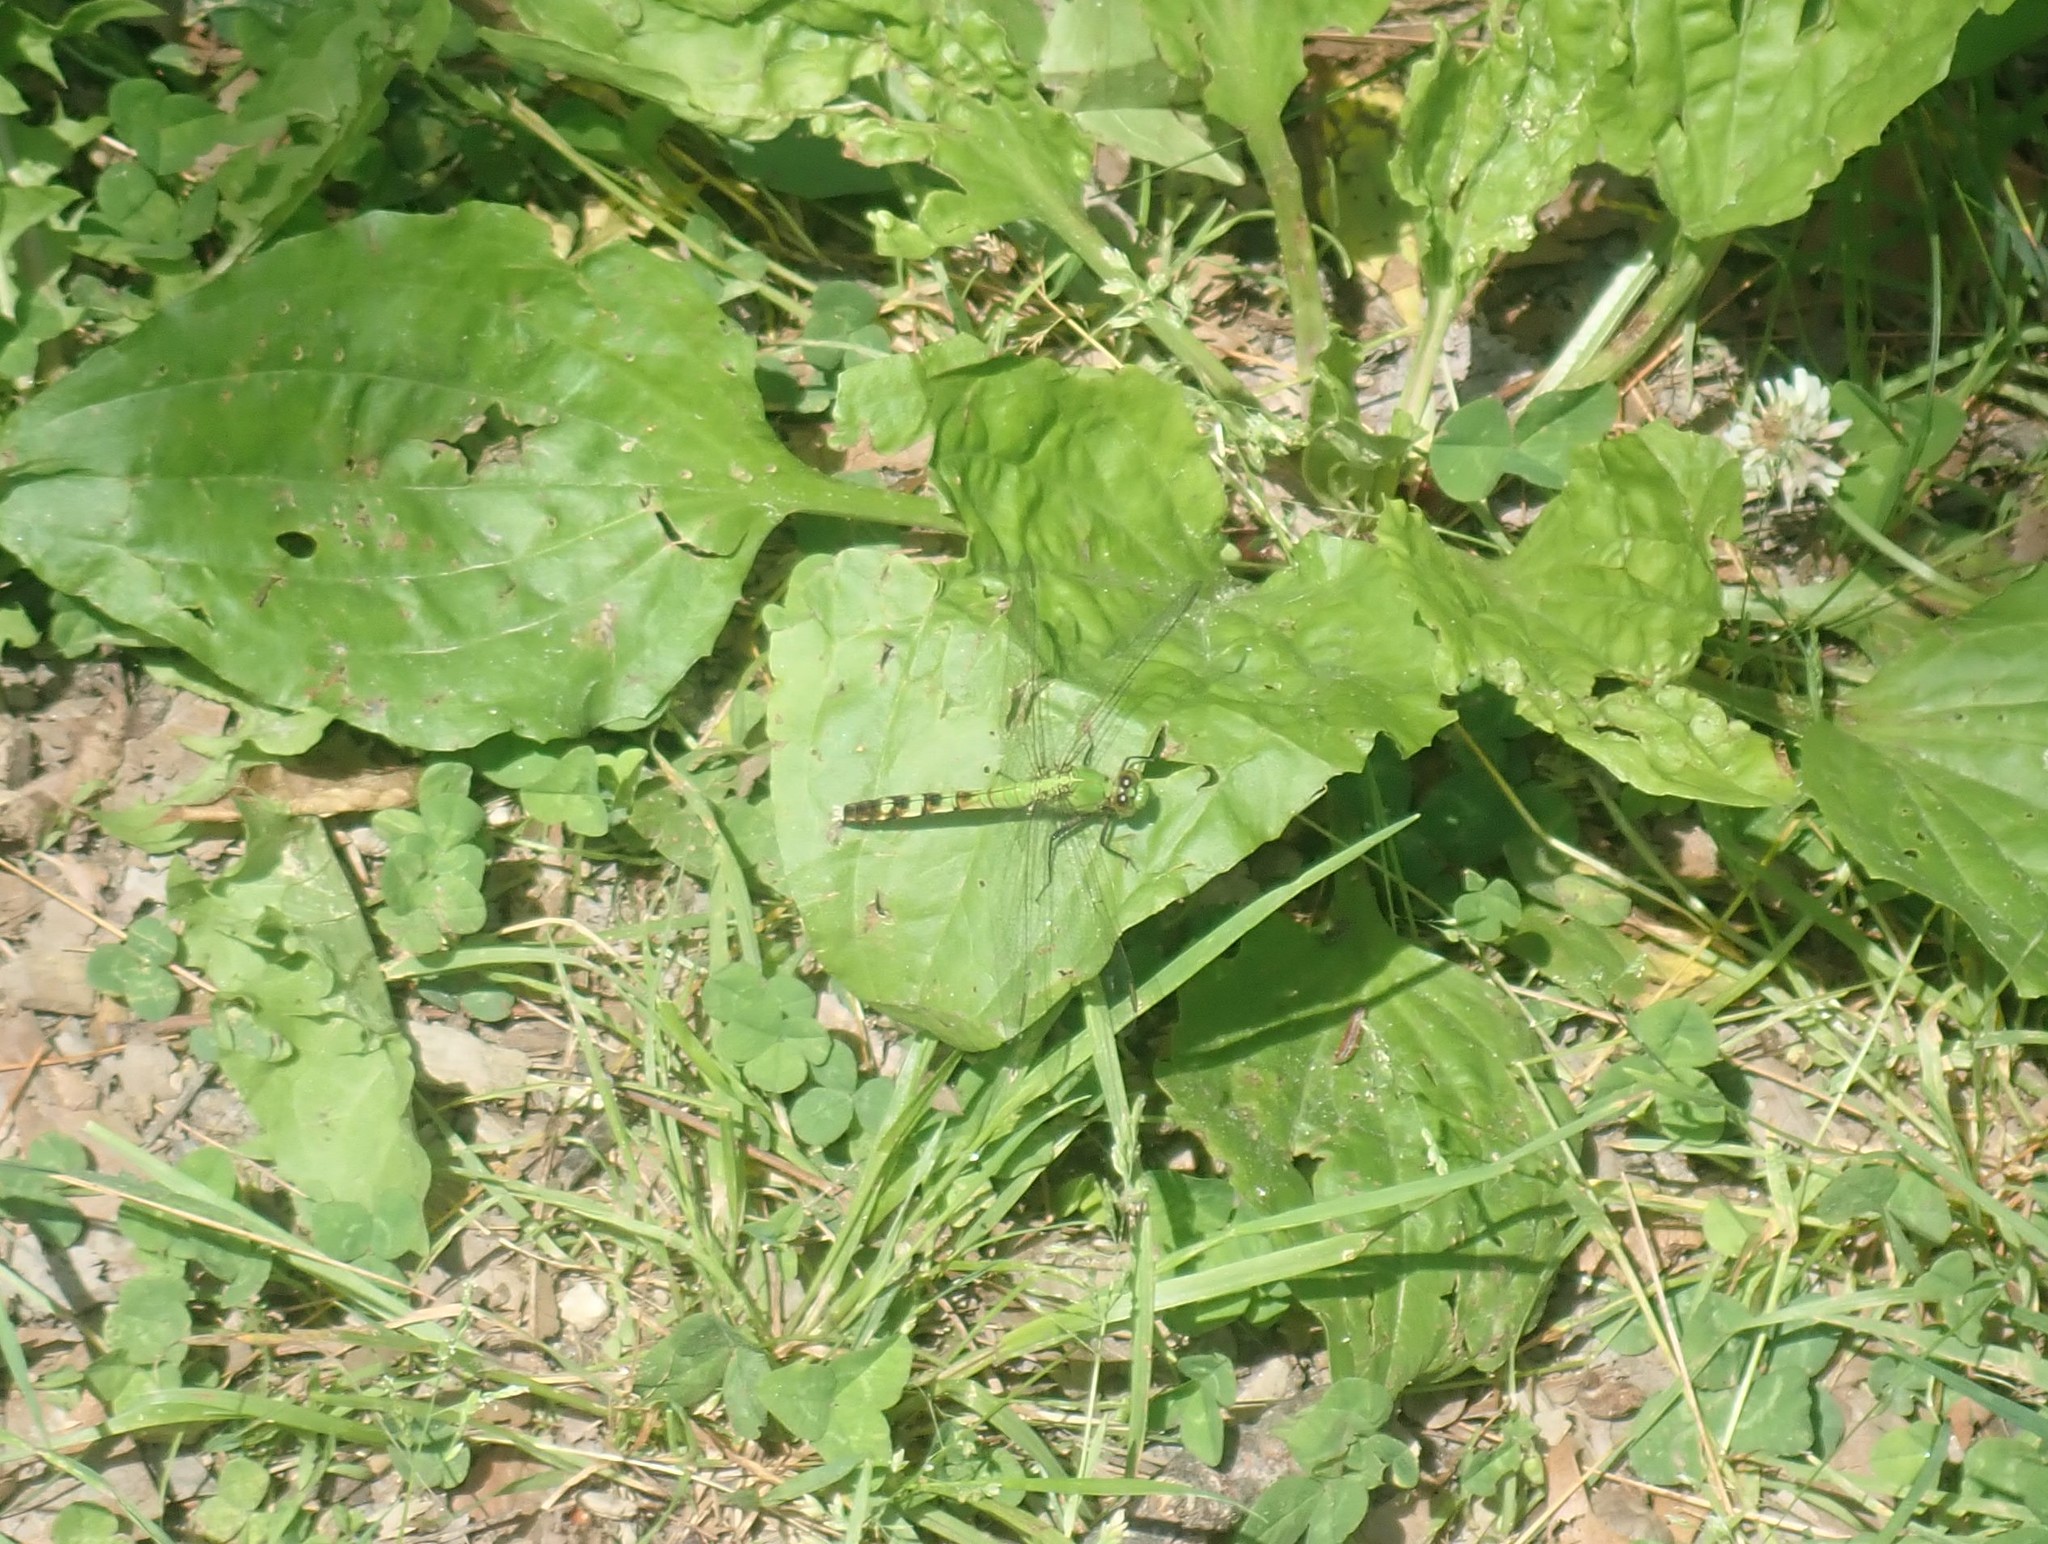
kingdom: Animalia
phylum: Arthropoda
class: Insecta
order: Odonata
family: Libellulidae
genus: Erythemis
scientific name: Erythemis simplicicollis
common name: Eastern pondhawk
